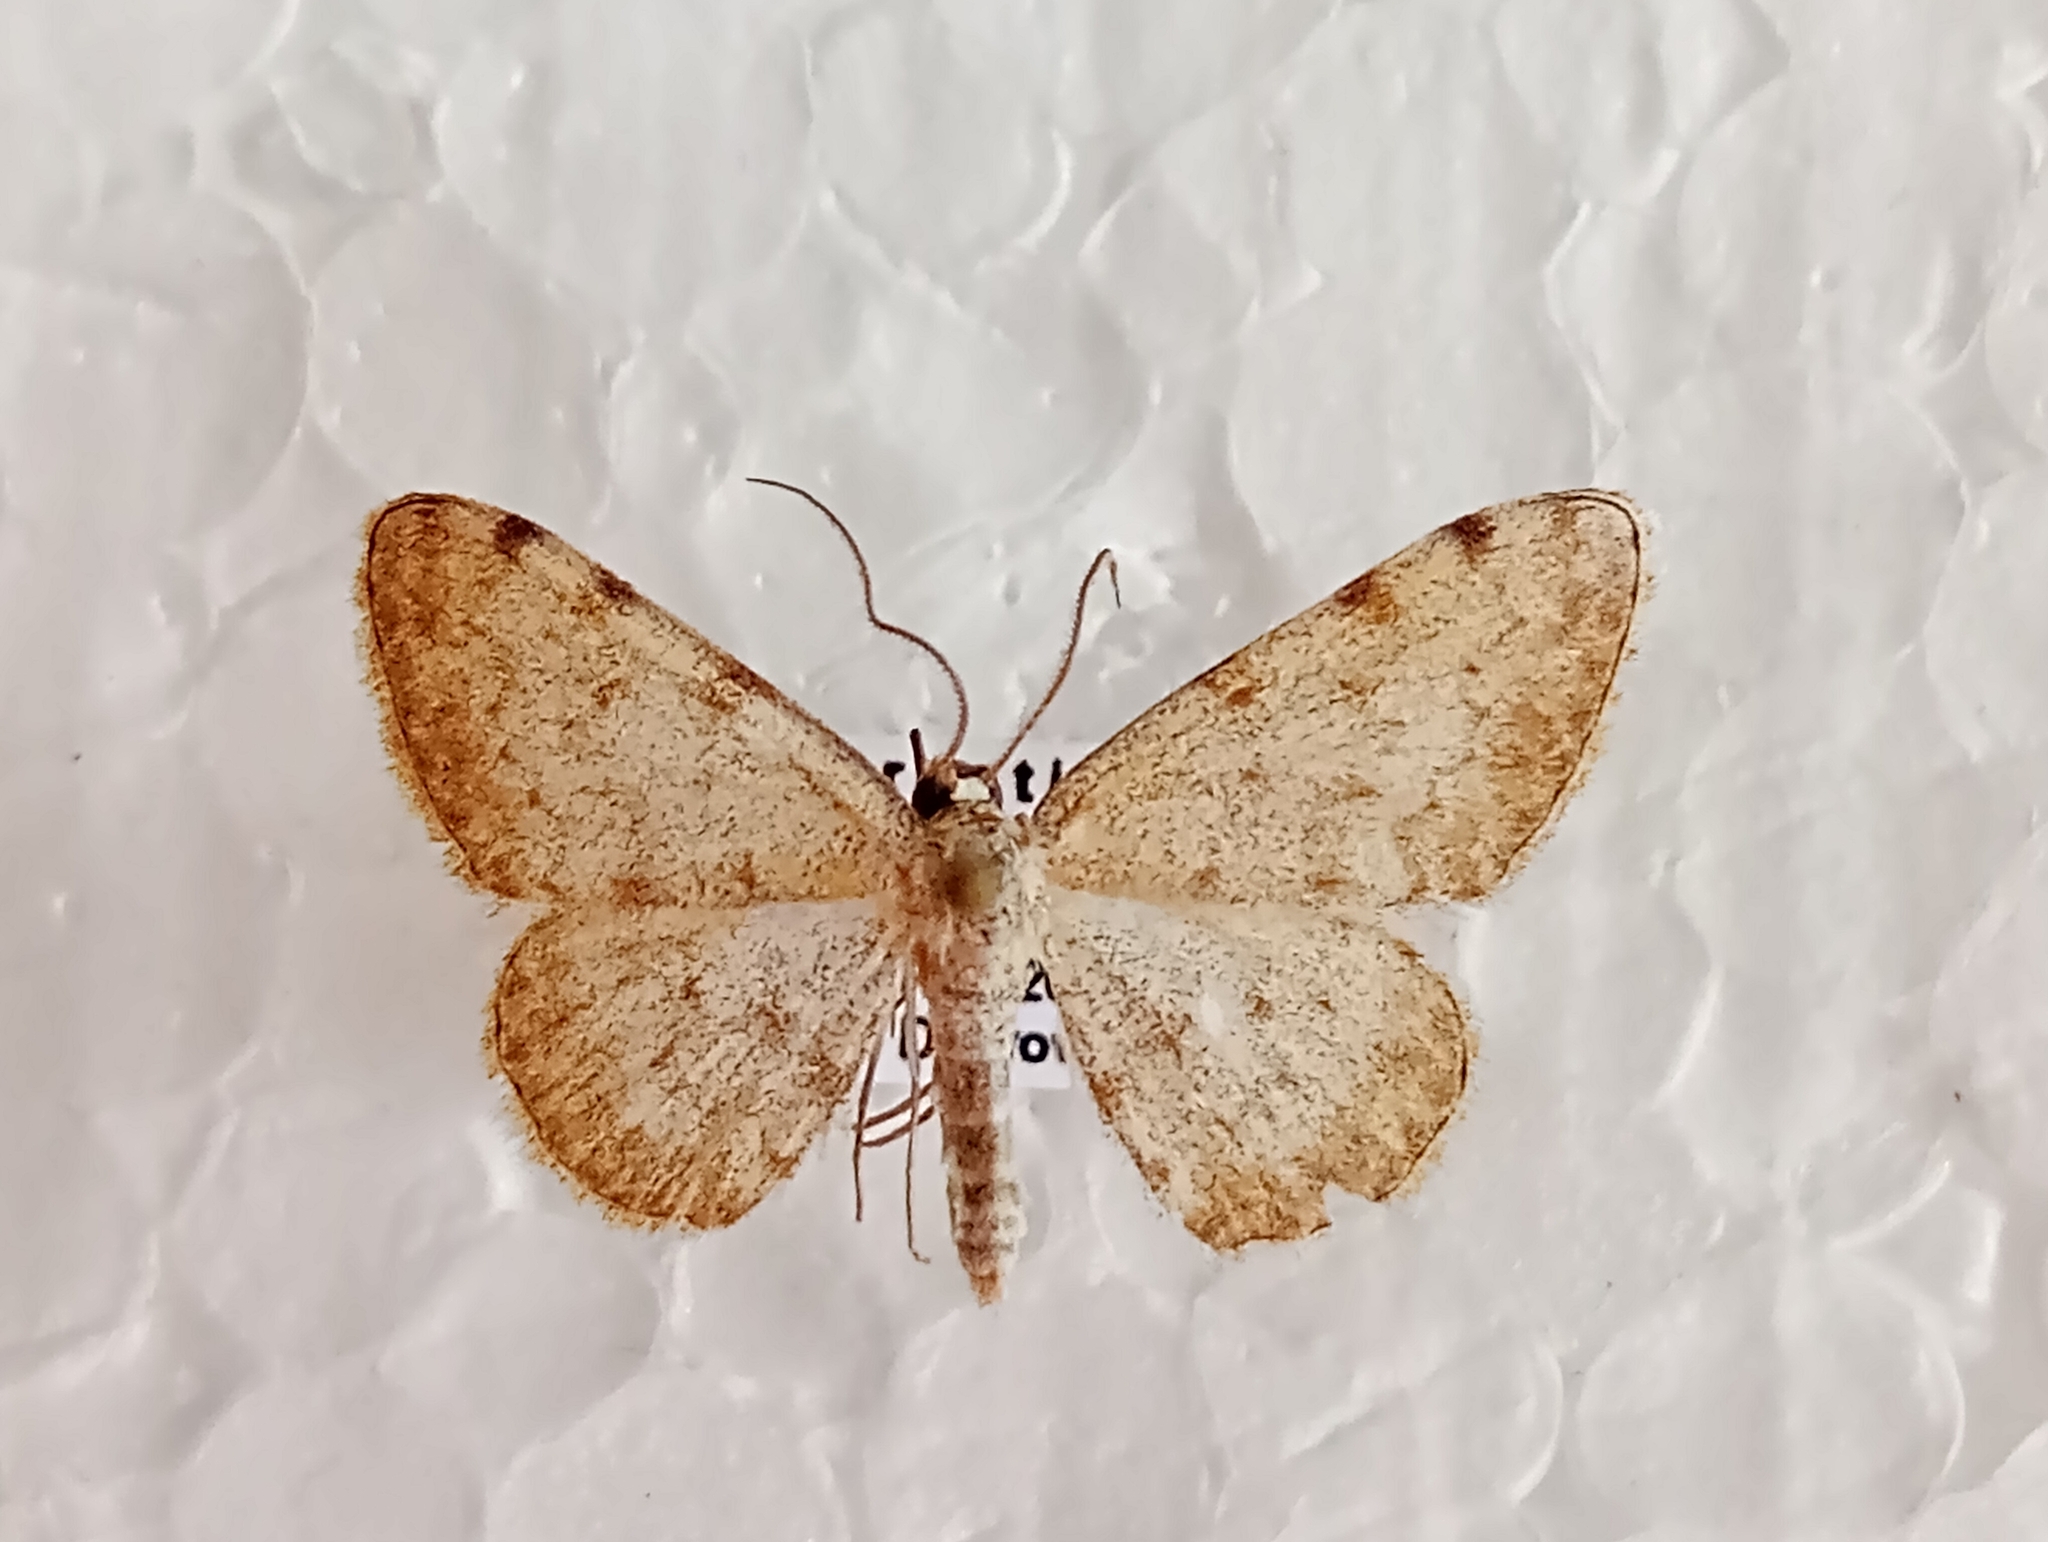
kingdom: Animalia
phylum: Arthropoda
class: Insecta
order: Lepidoptera
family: Geometridae
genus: Glossotrophia
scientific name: Glossotrophia confinaria
